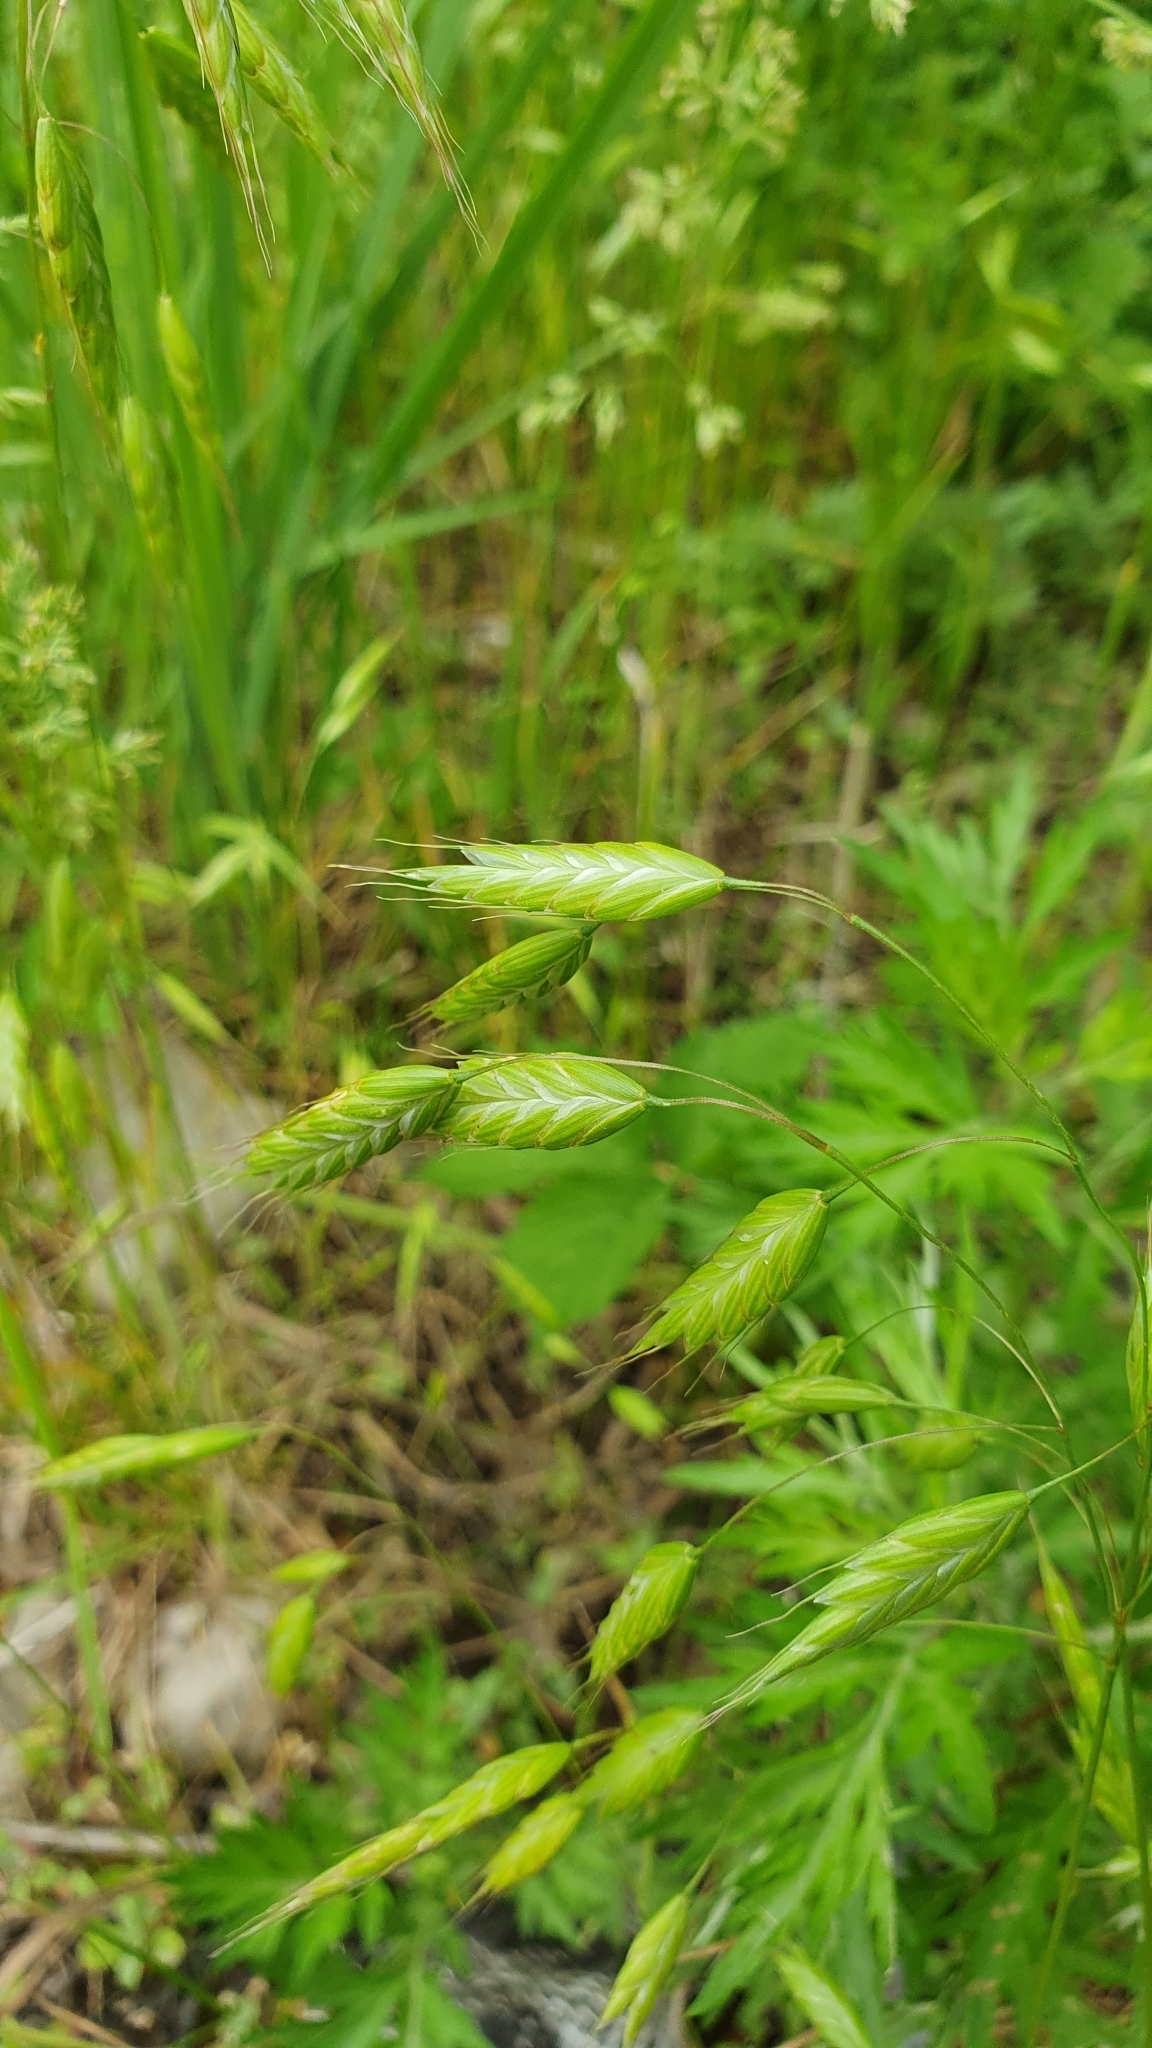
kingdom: Plantae
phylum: Tracheophyta
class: Liliopsida
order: Poales
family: Poaceae
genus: Bromus
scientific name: Bromus squarrosus
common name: Corn brome
